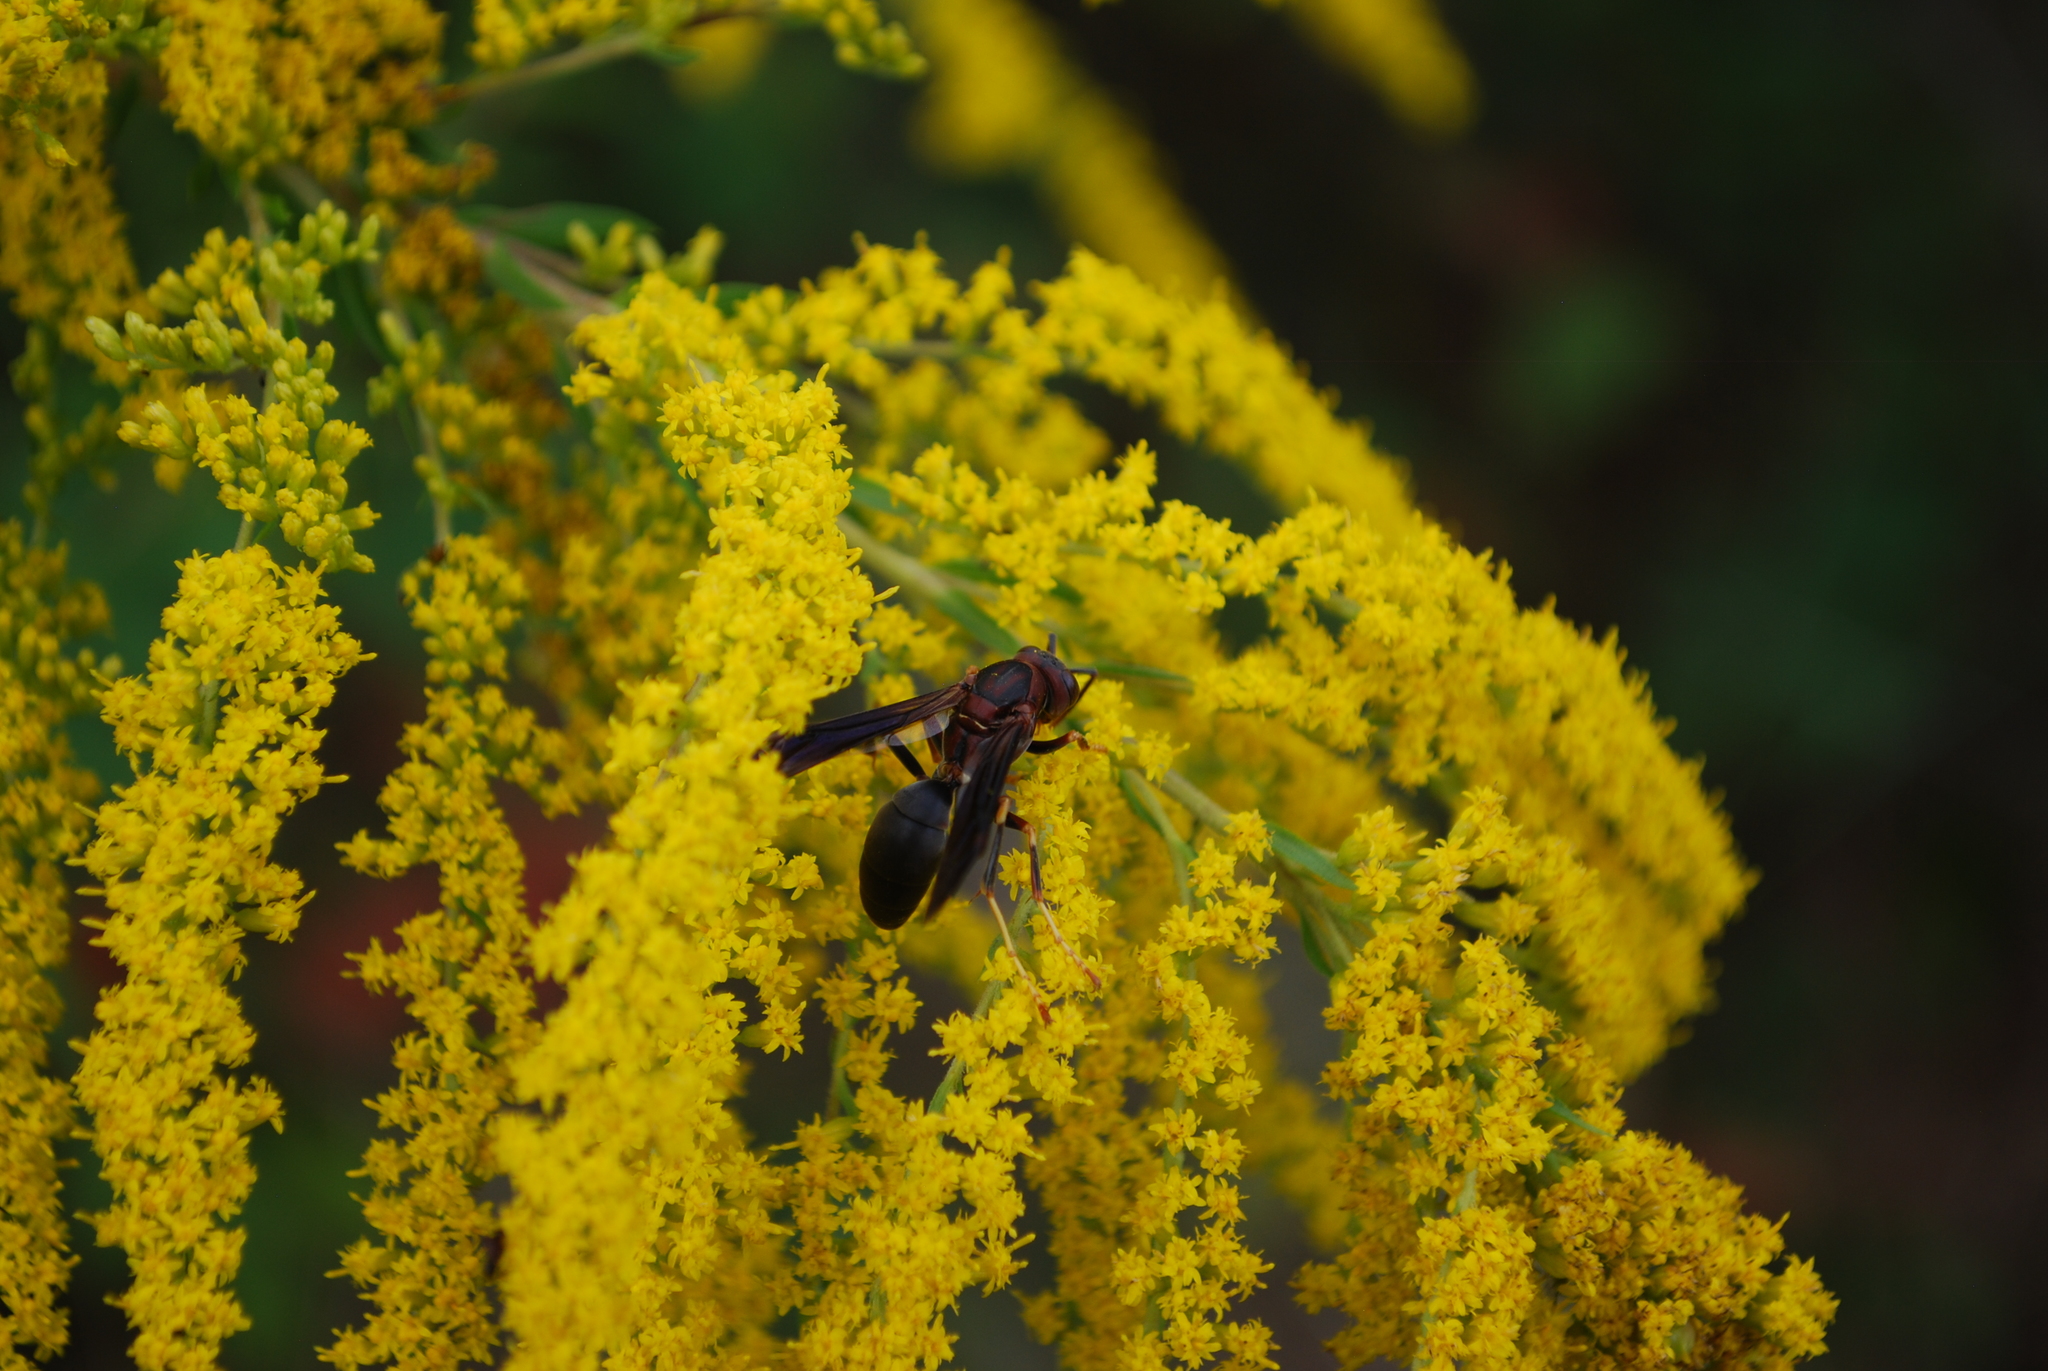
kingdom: Animalia
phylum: Arthropoda
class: Insecta
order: Hymenoptera
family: Eumenidae
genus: Polistes
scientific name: Polistes metricus
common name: Metric paper wasp
